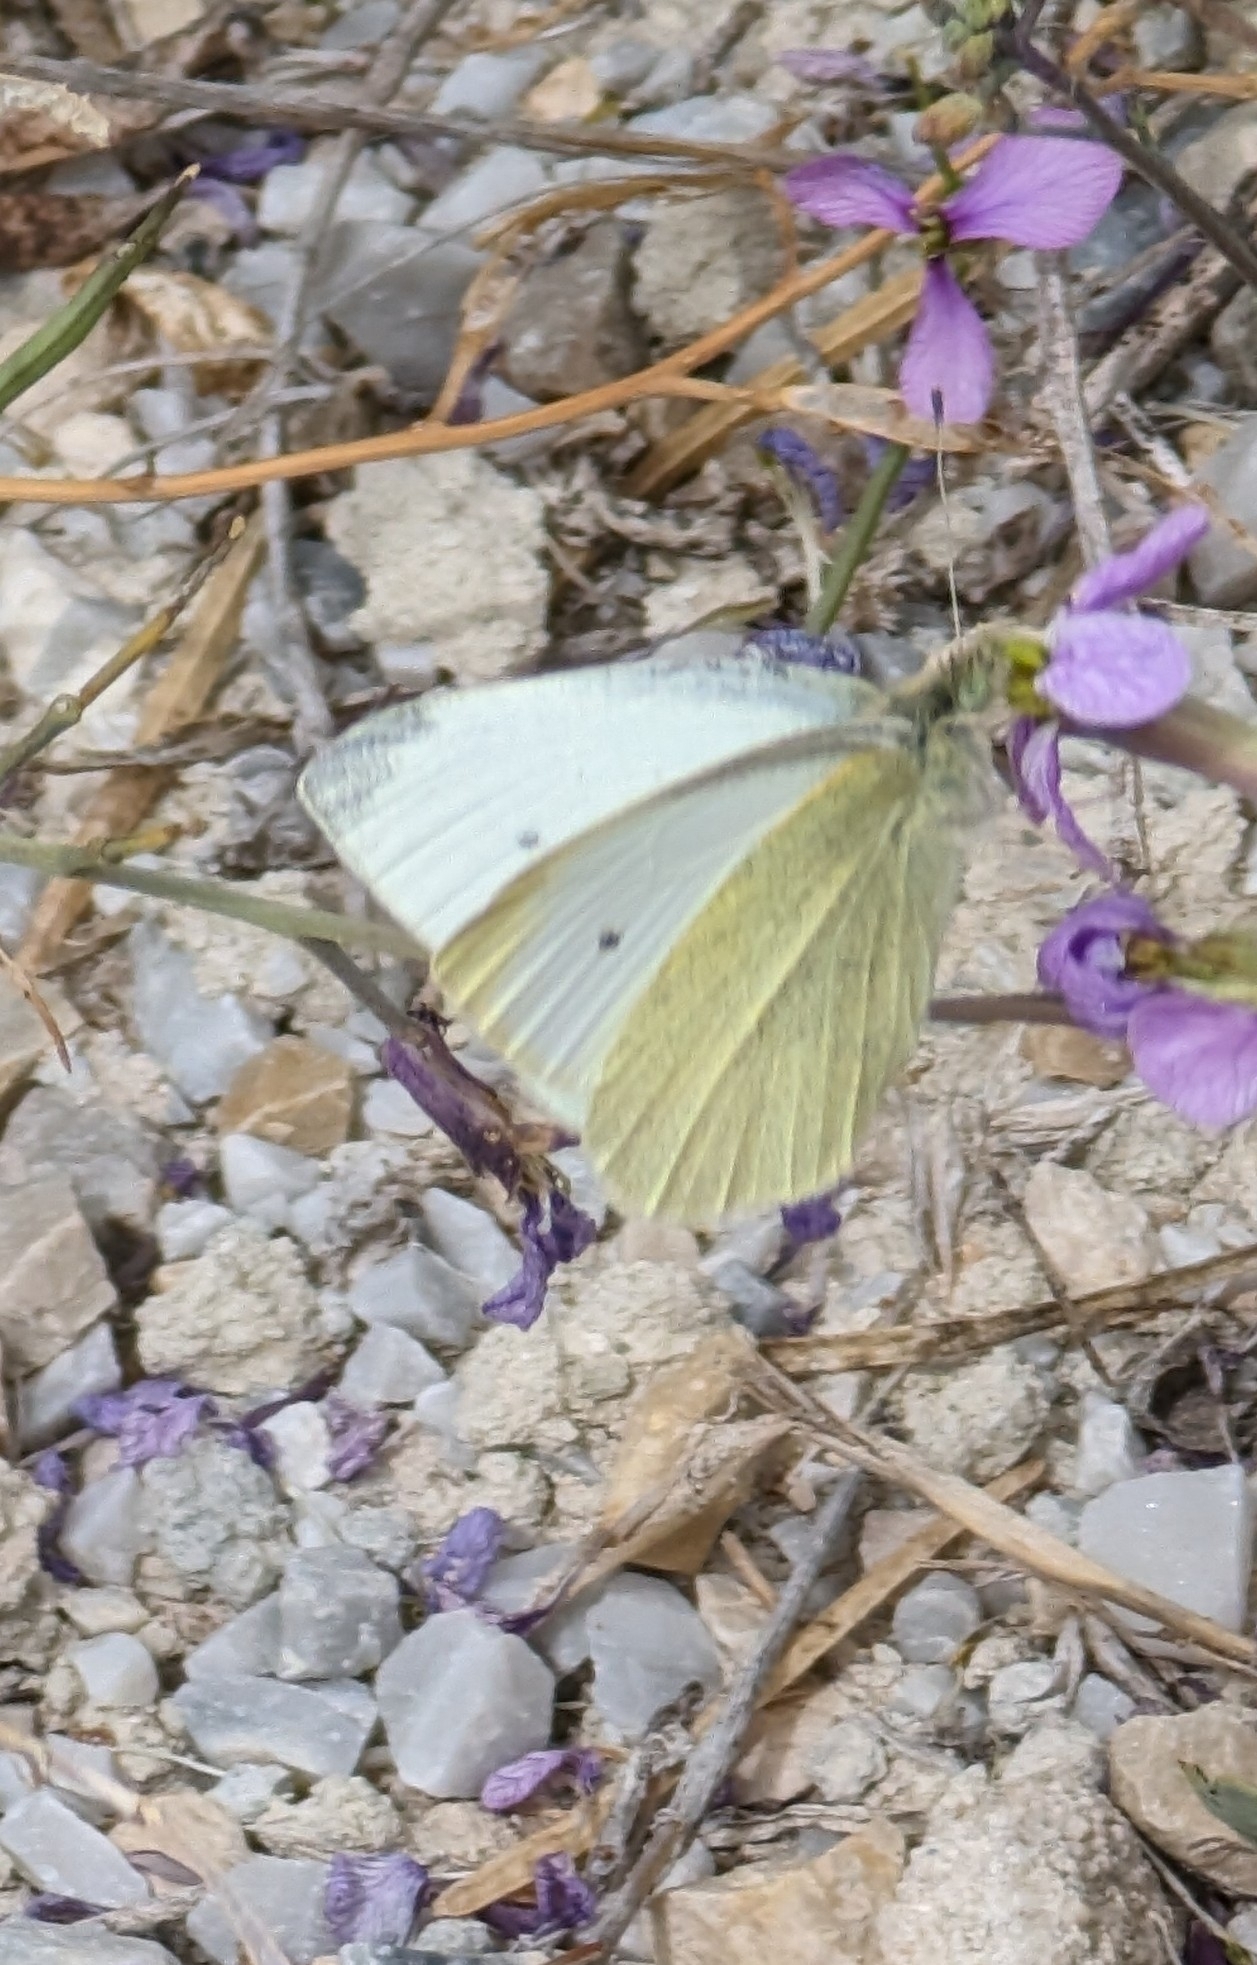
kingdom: Animalia
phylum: Arthropoda
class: Insecta
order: Lepidoptera
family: Pieridae
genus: Pieris
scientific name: Pieris rapae
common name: Small white
